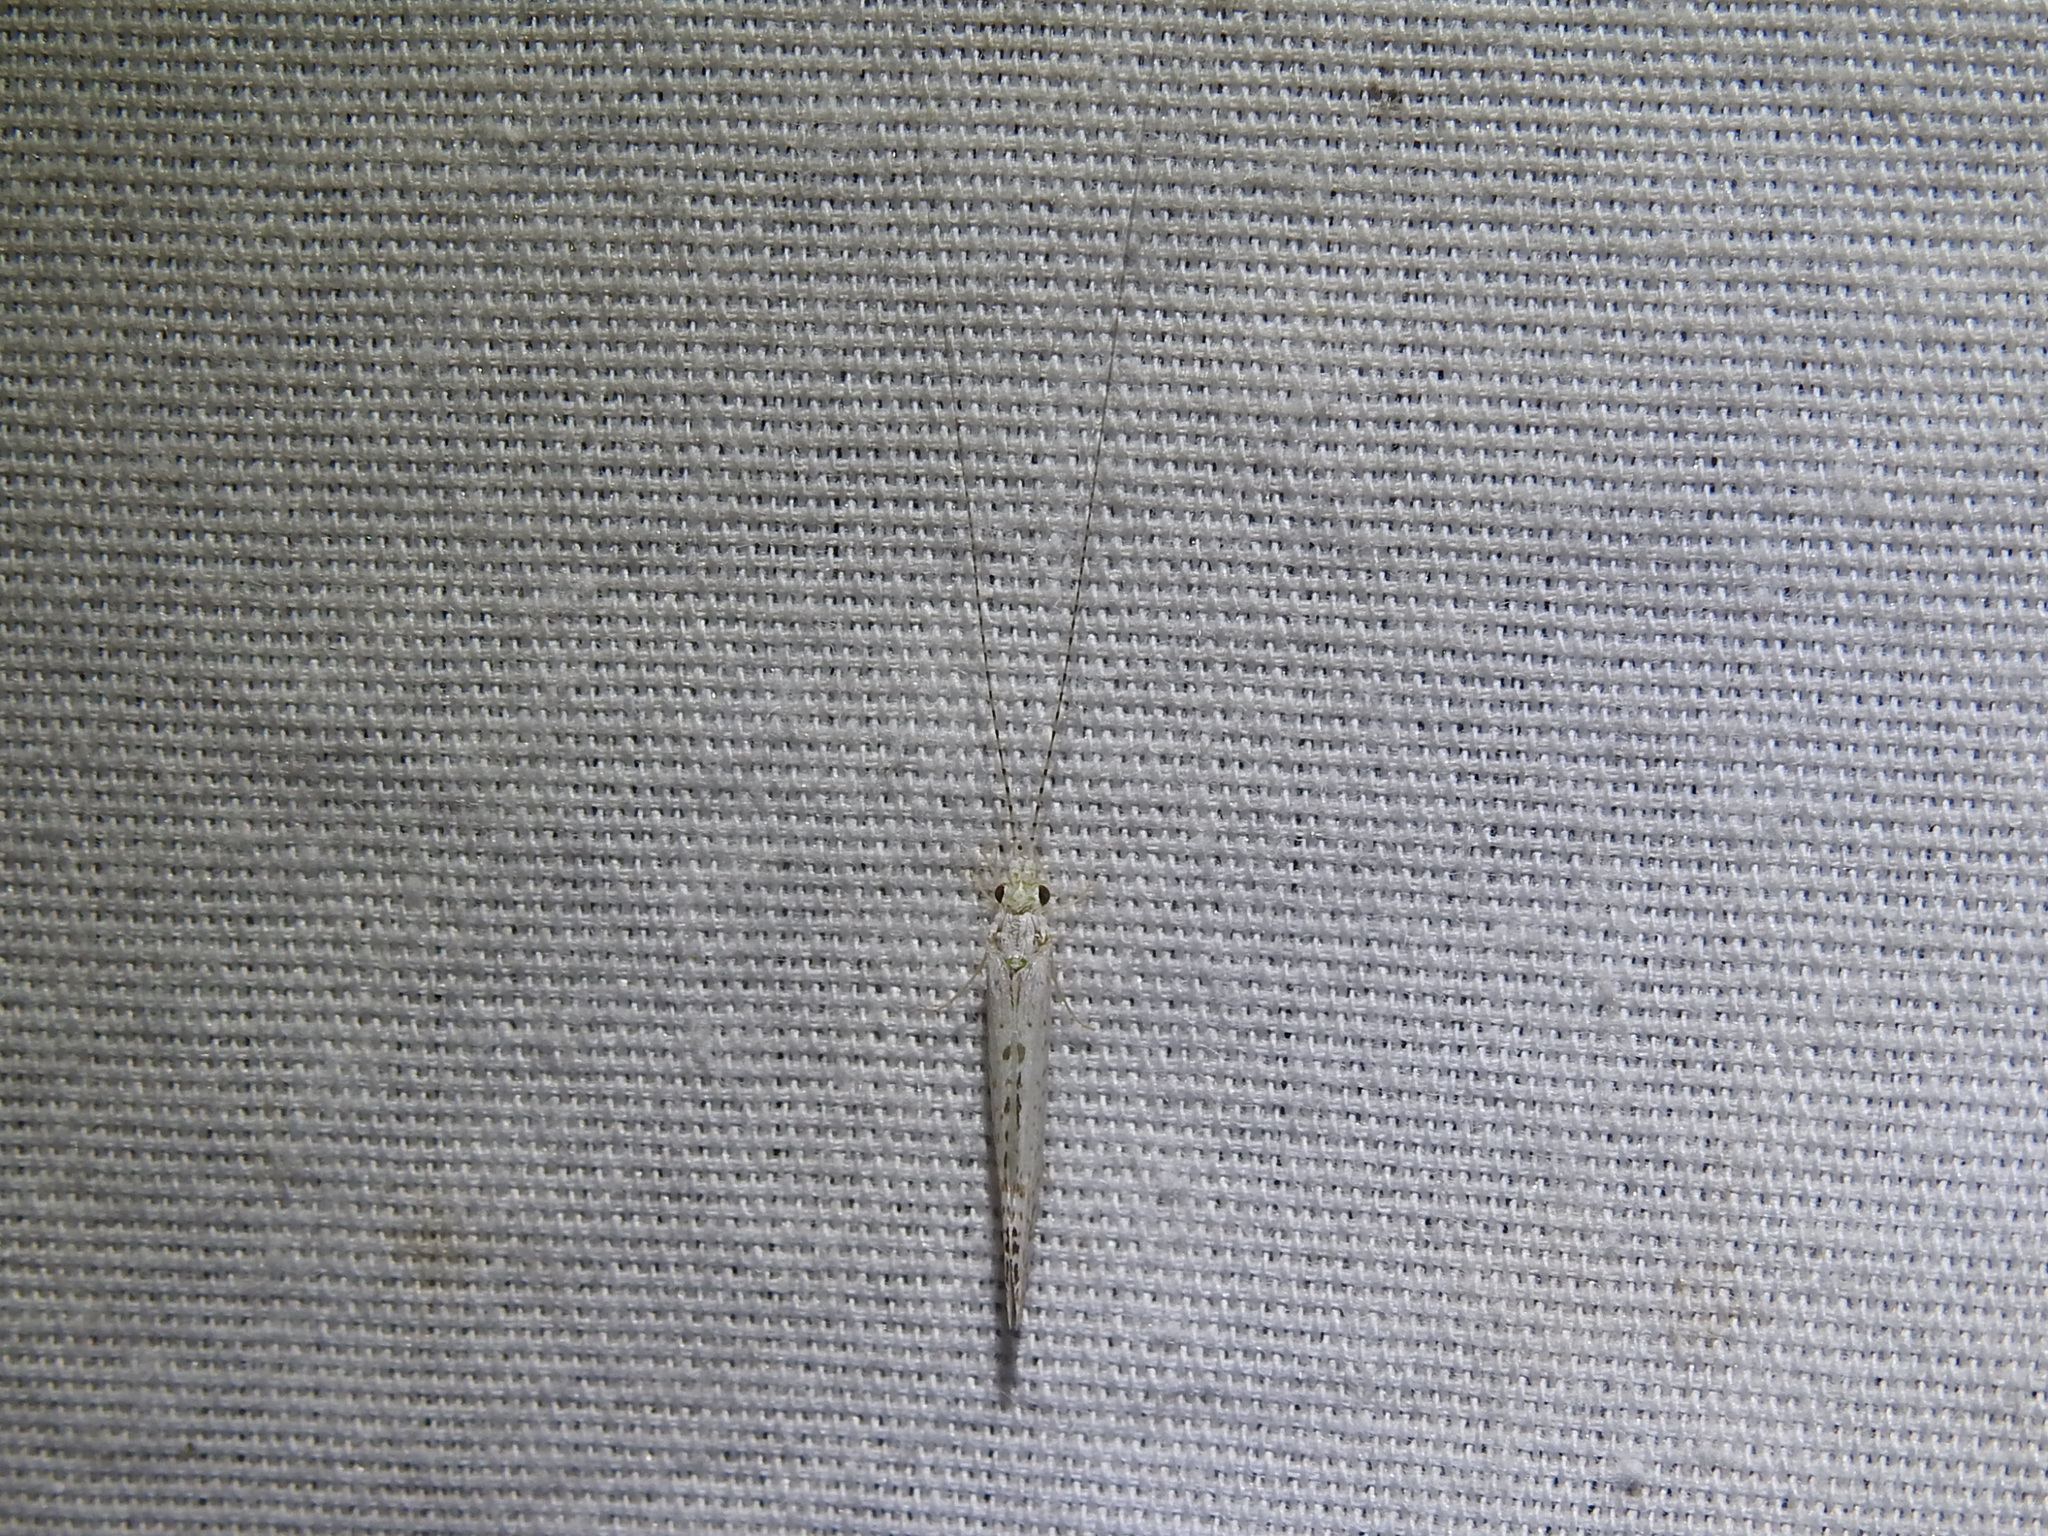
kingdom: Animalia
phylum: Arthropoda
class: Insecta
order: Trichoptera
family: Leptoceridae
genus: Nectopsyche
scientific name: Nectopsyche candida
